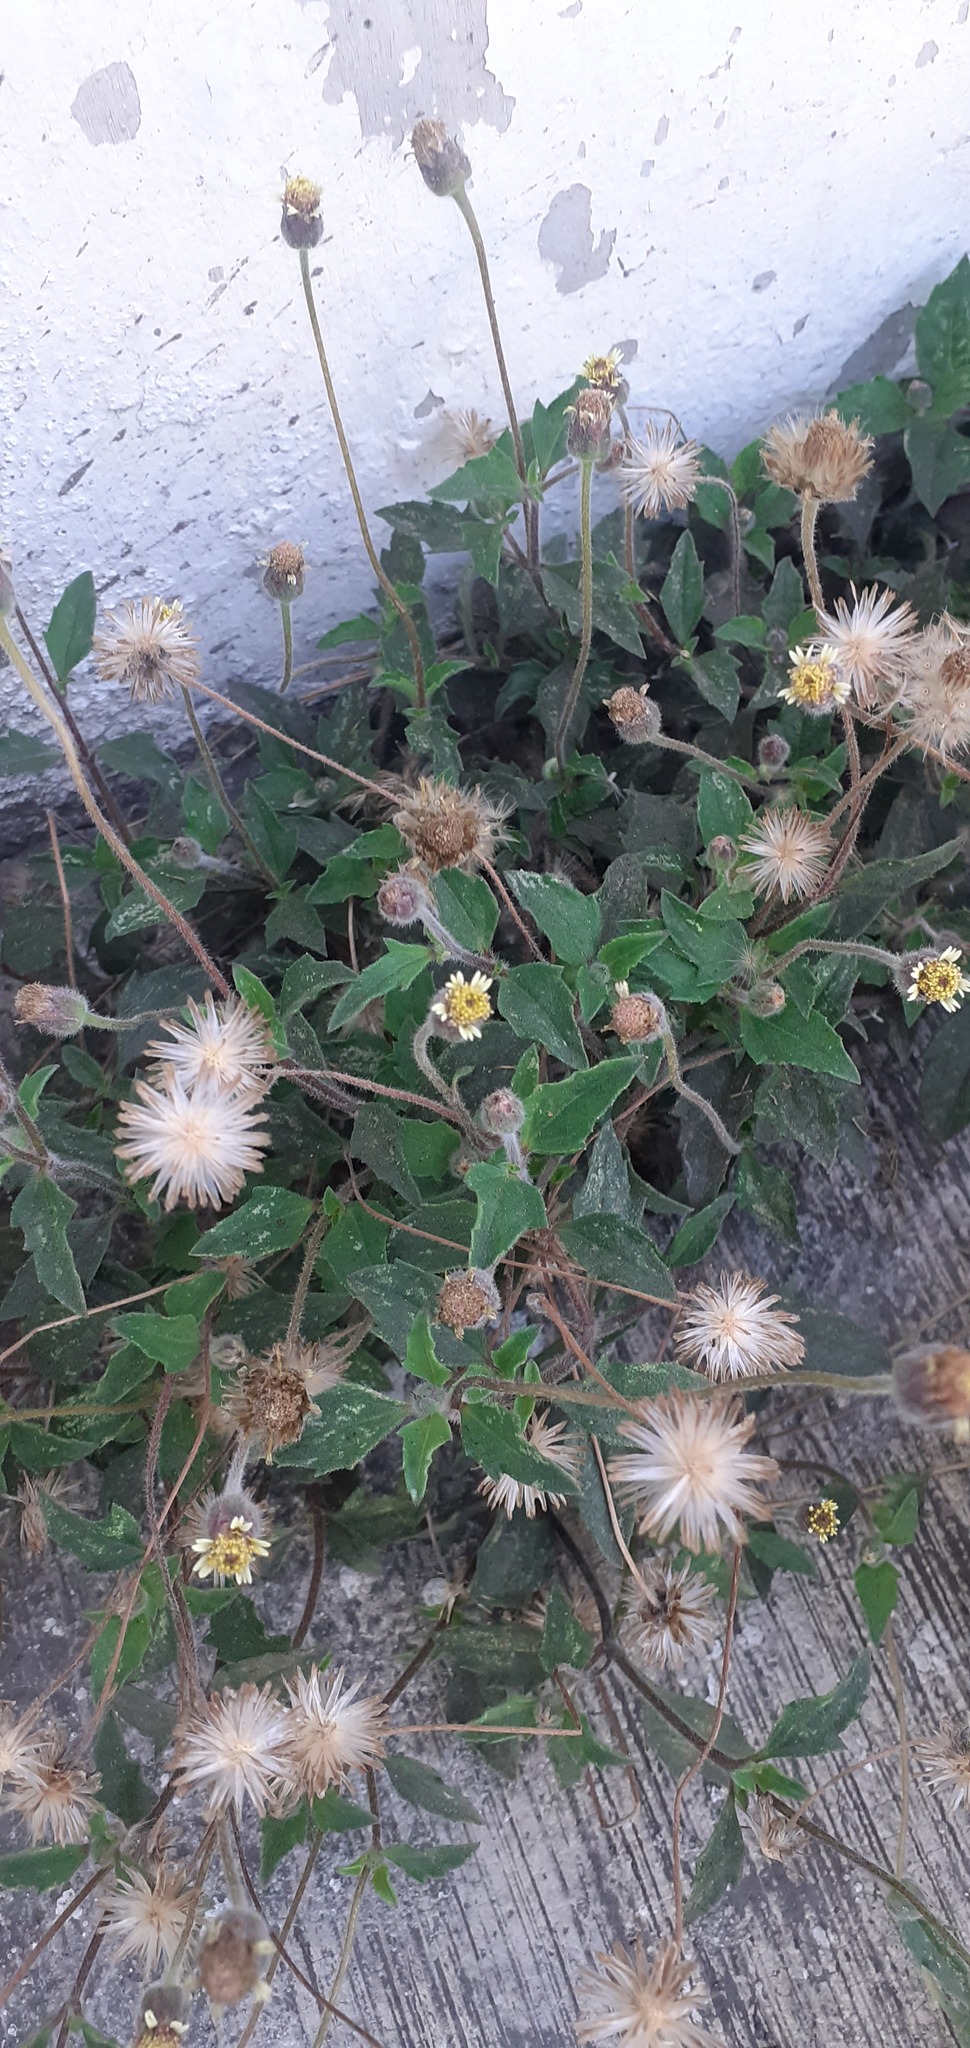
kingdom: Plantae
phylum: Tracheophyta
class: Magnoliopsida
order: Asterales
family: Asteraceae
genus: Tridax
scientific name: Tridax procumbens
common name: Coatbuttons
